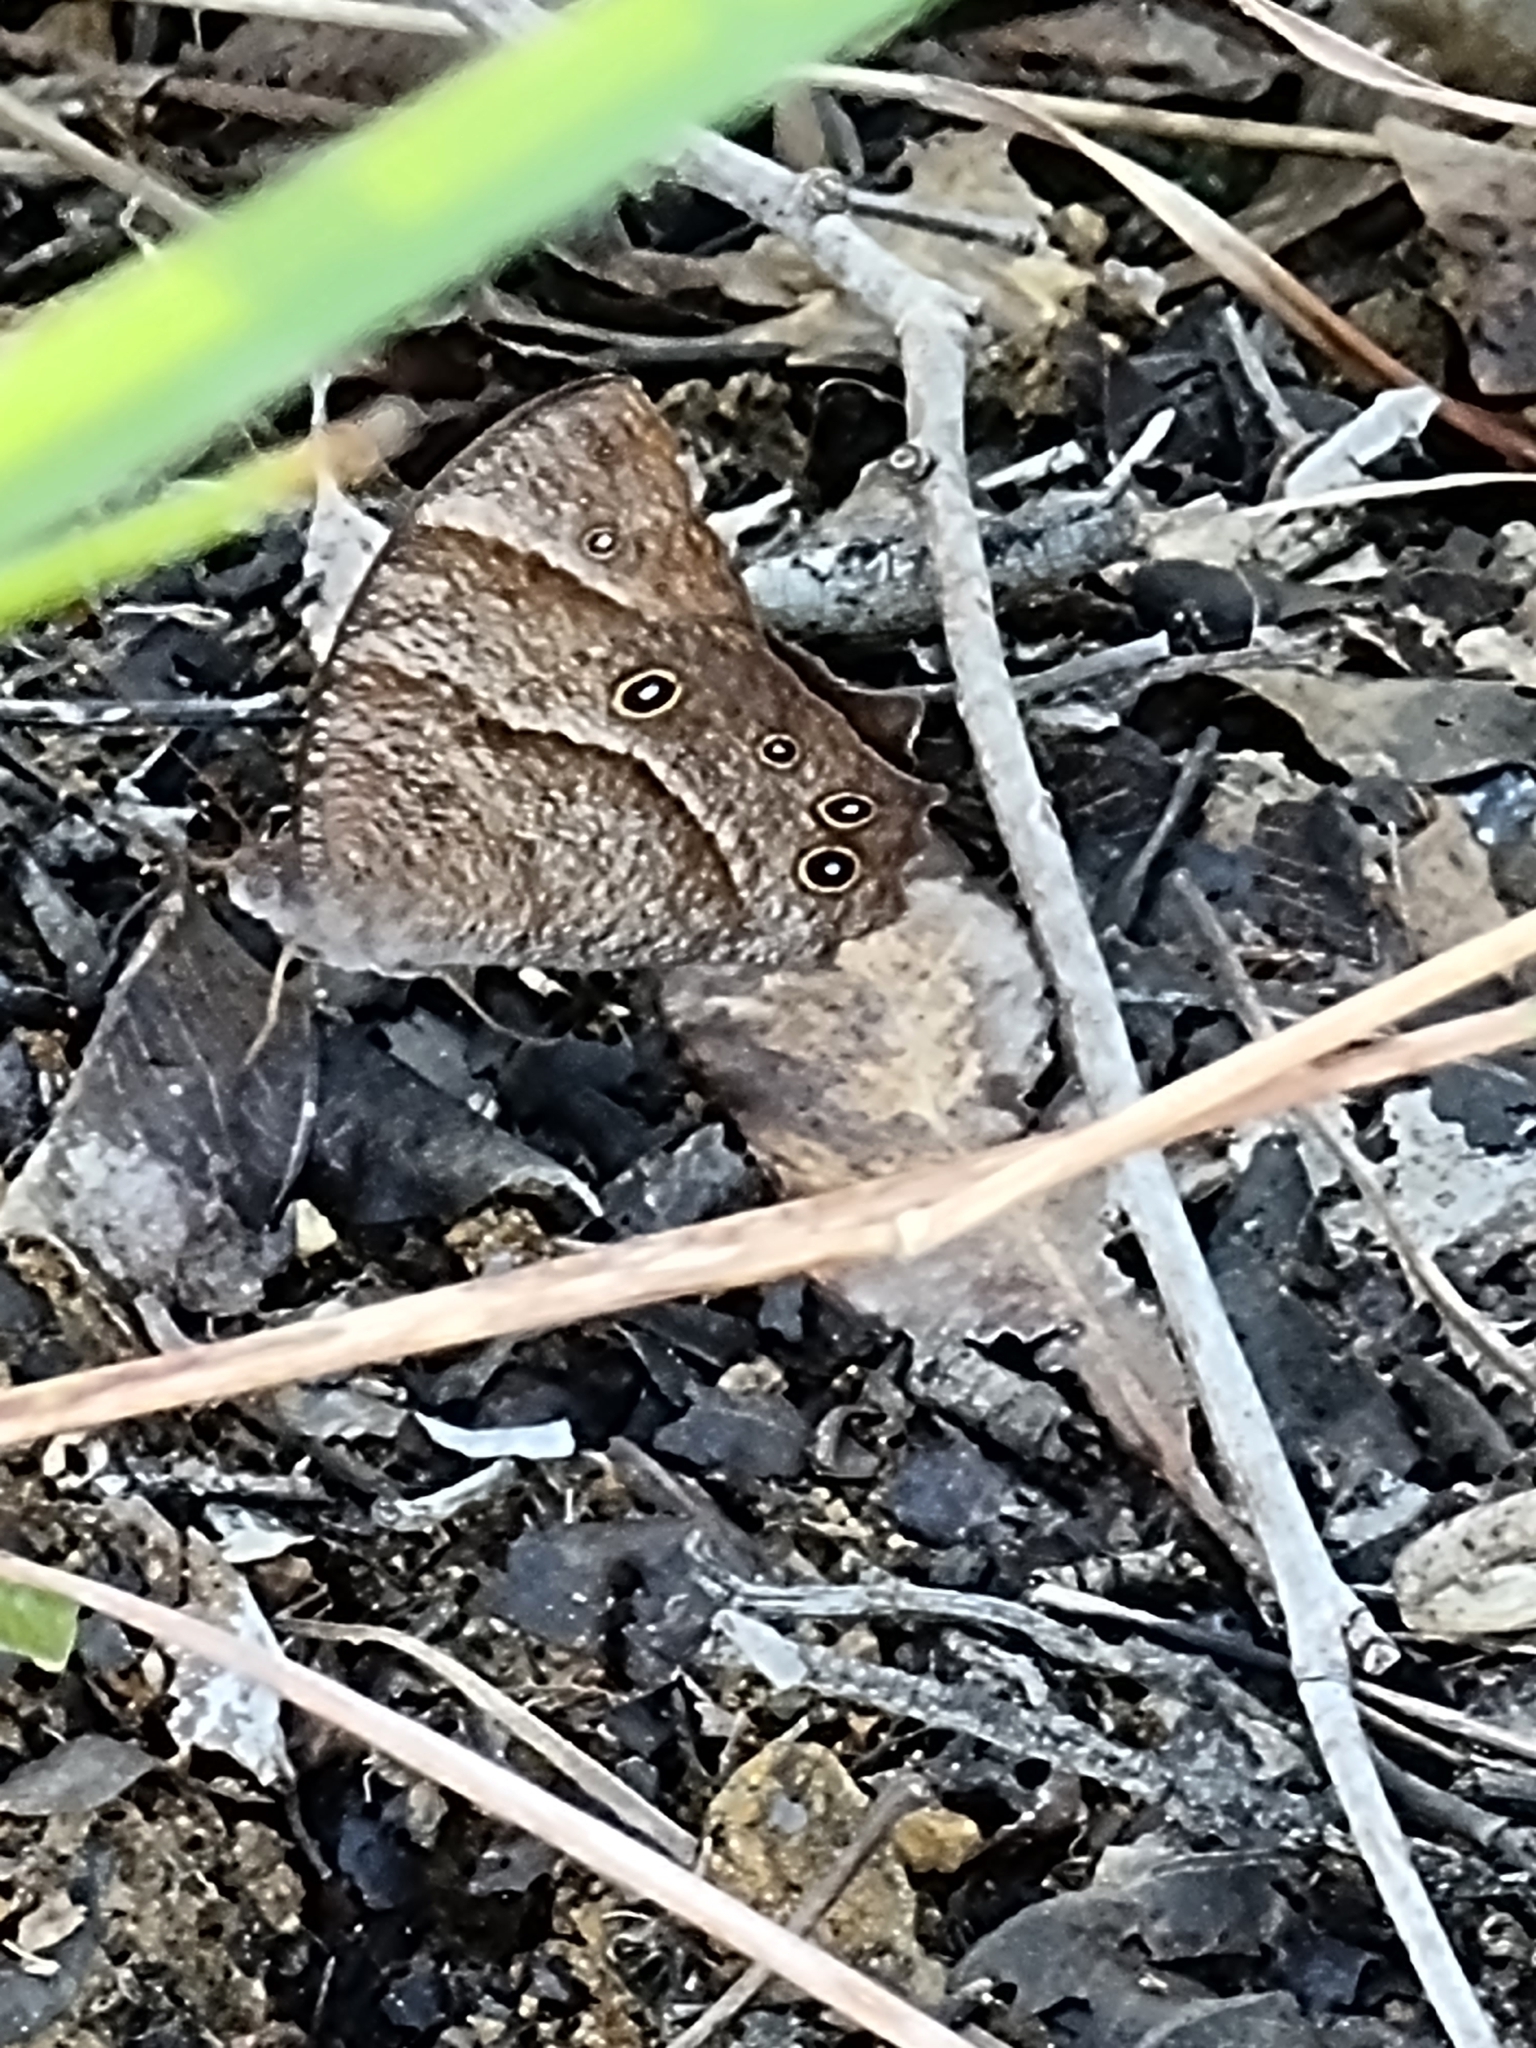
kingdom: Animalia
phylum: Arthropoda
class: Insecta
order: Lepidoptera
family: Nymphalidae
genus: Melanitis
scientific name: Melanitis leda
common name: Twilight brown
